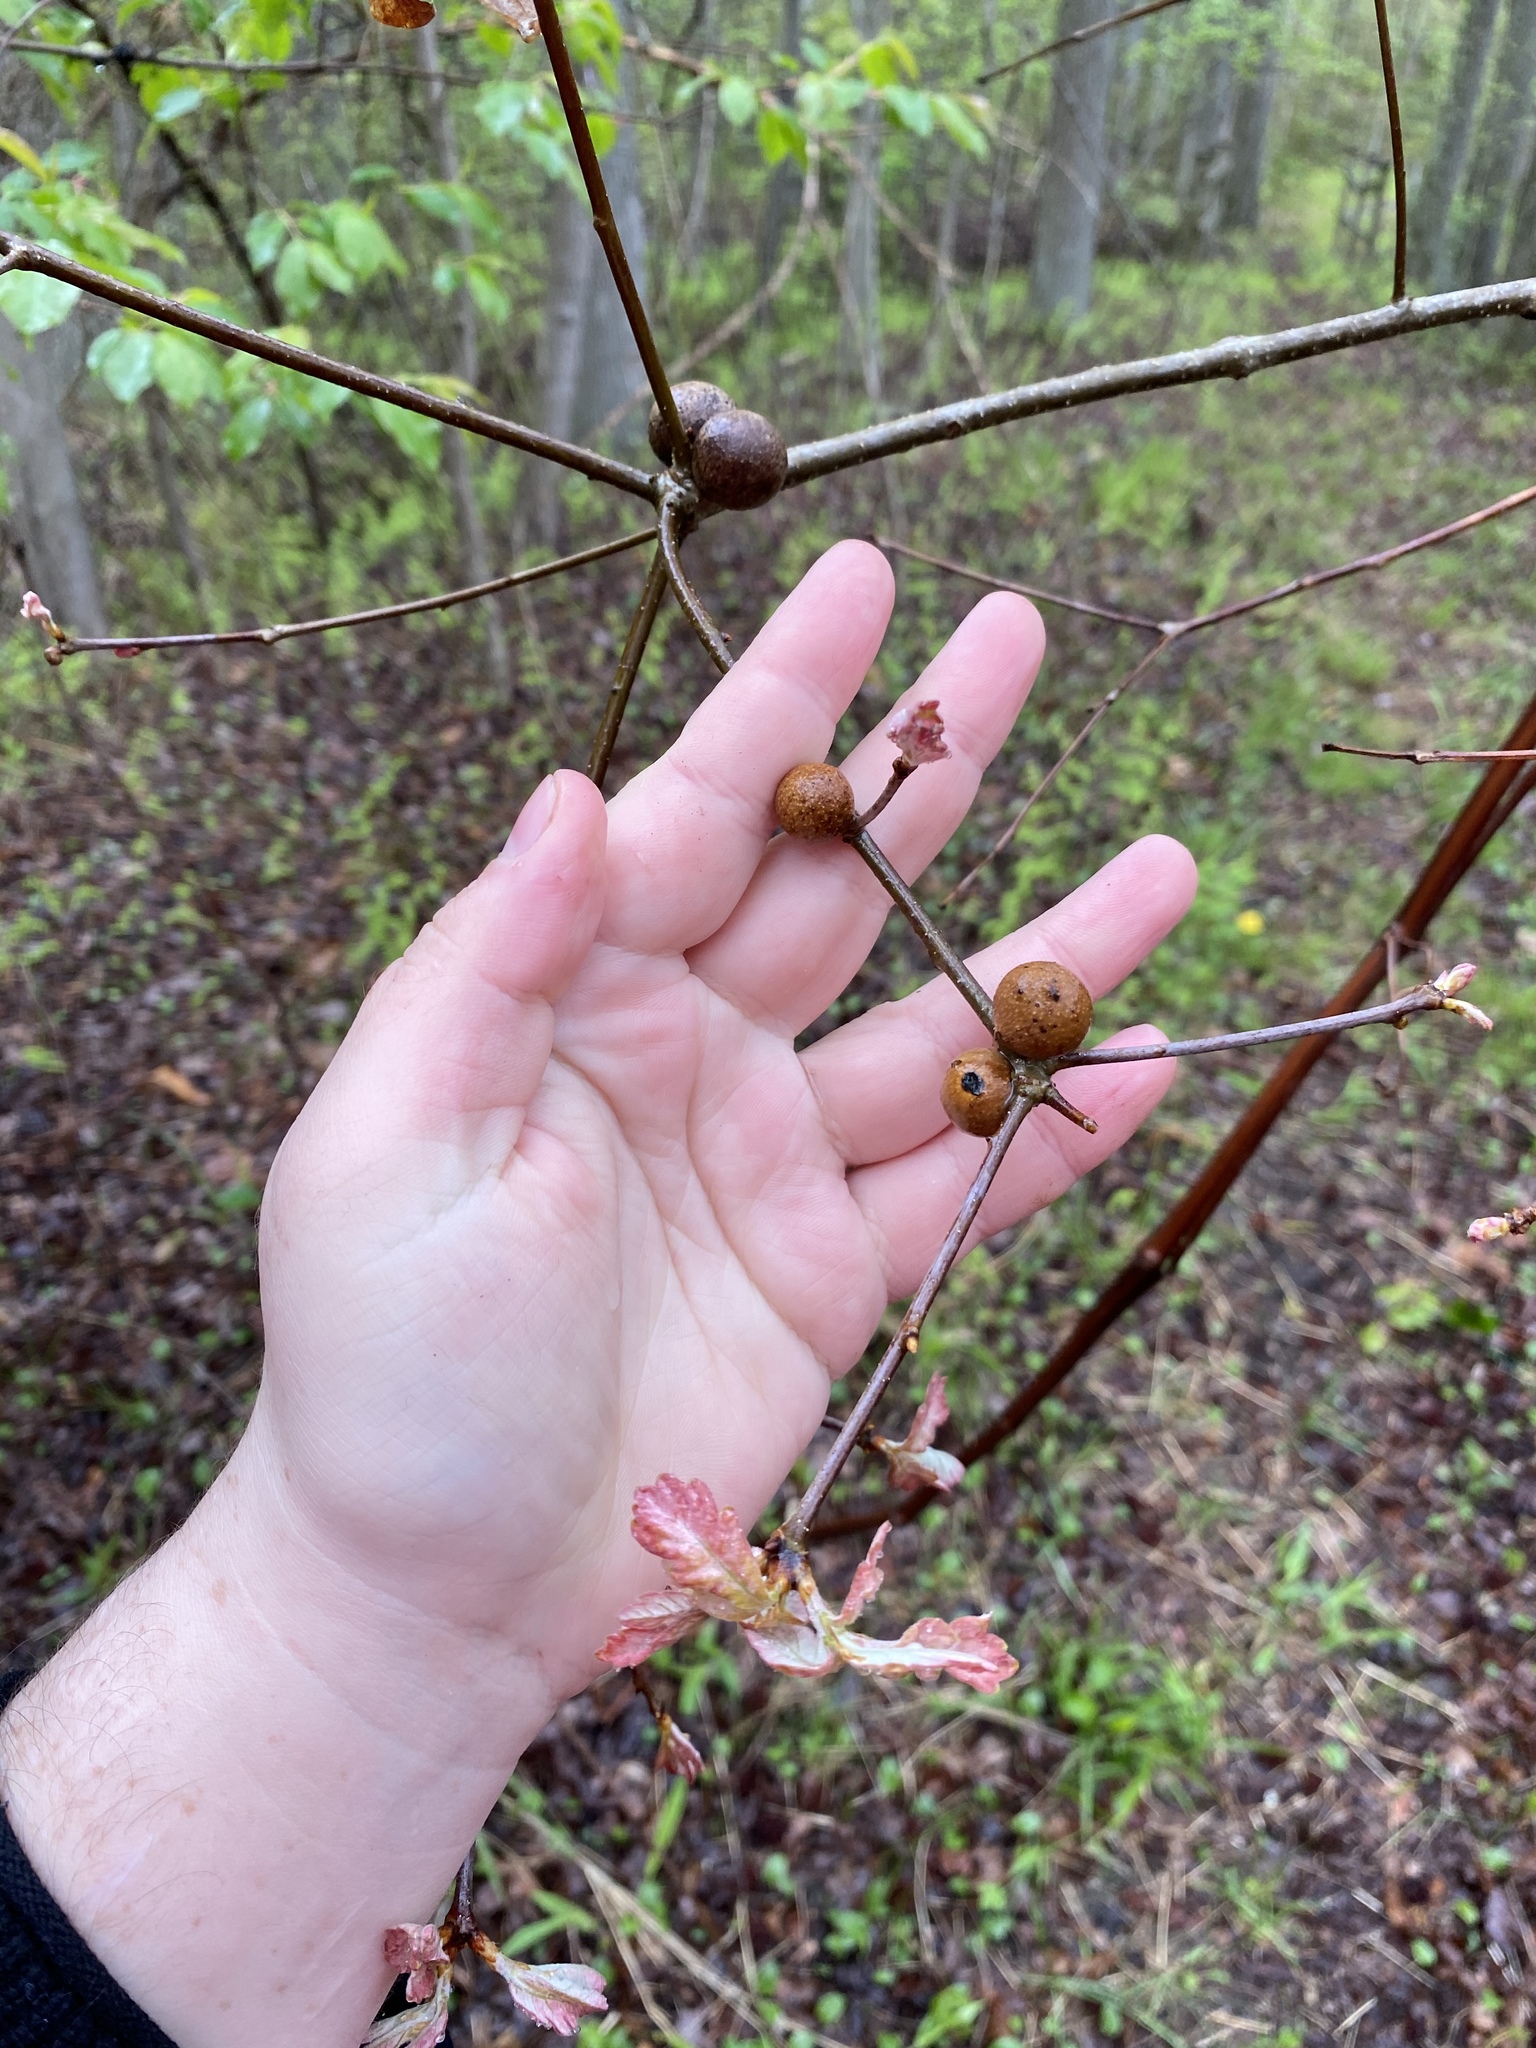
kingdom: Animalia
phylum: Arthropoda
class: Insecta
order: Hymenoptera
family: Cynipidae
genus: Disholcaspis
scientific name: Disholcaspis quercusglobulus
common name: Round bullet gall wasp
